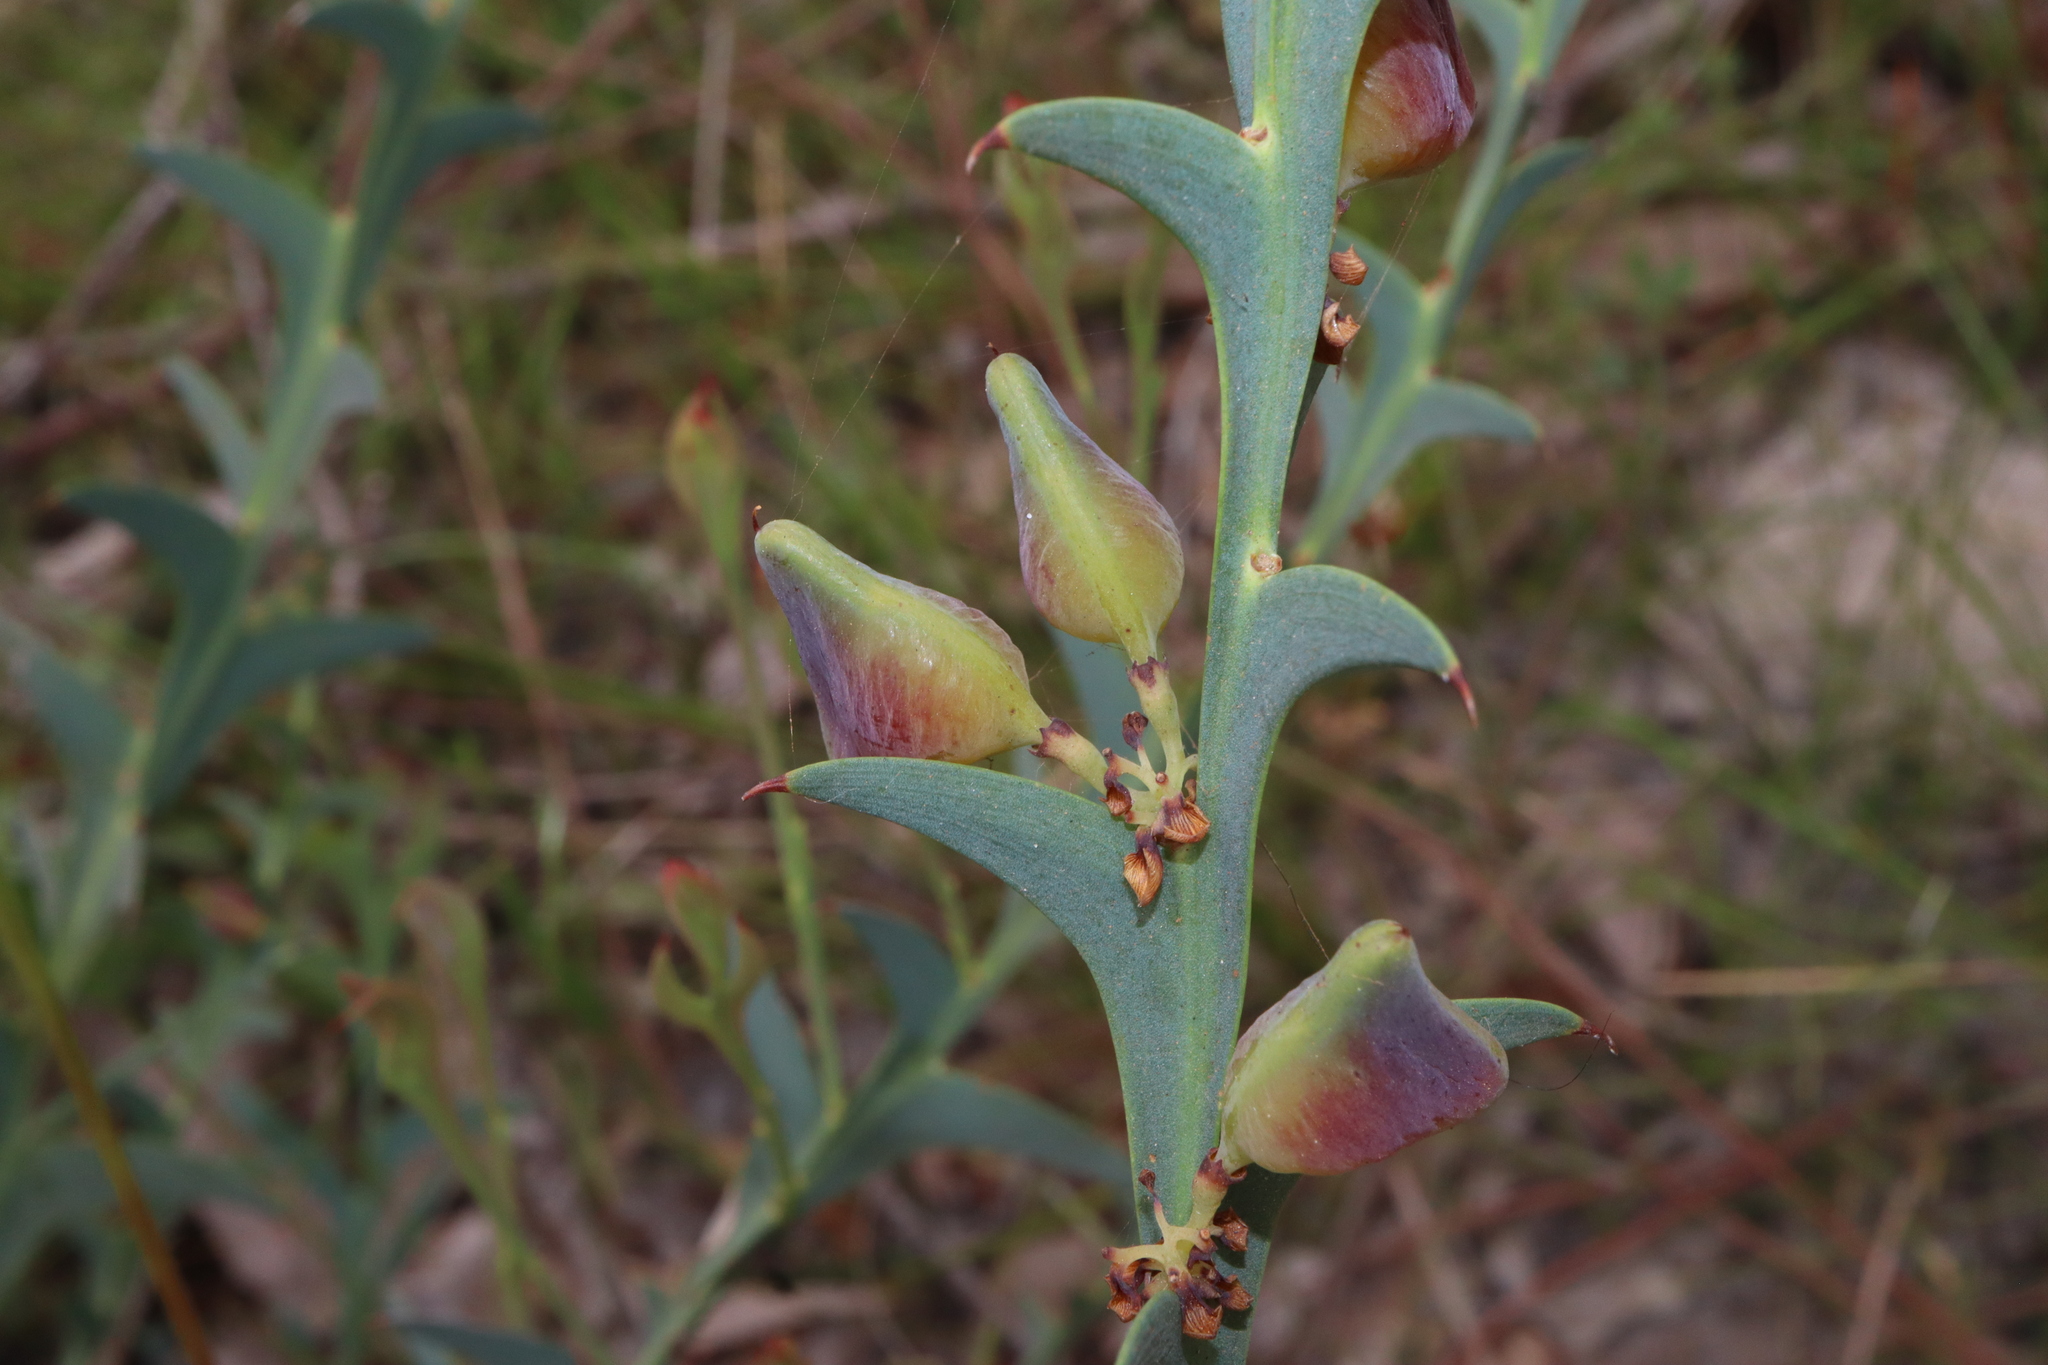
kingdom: Plantae
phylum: Tracheophyta
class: Magnoliopsida
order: Fabales
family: Fabaceae
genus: Daviesia
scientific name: Daviesia decurrens
